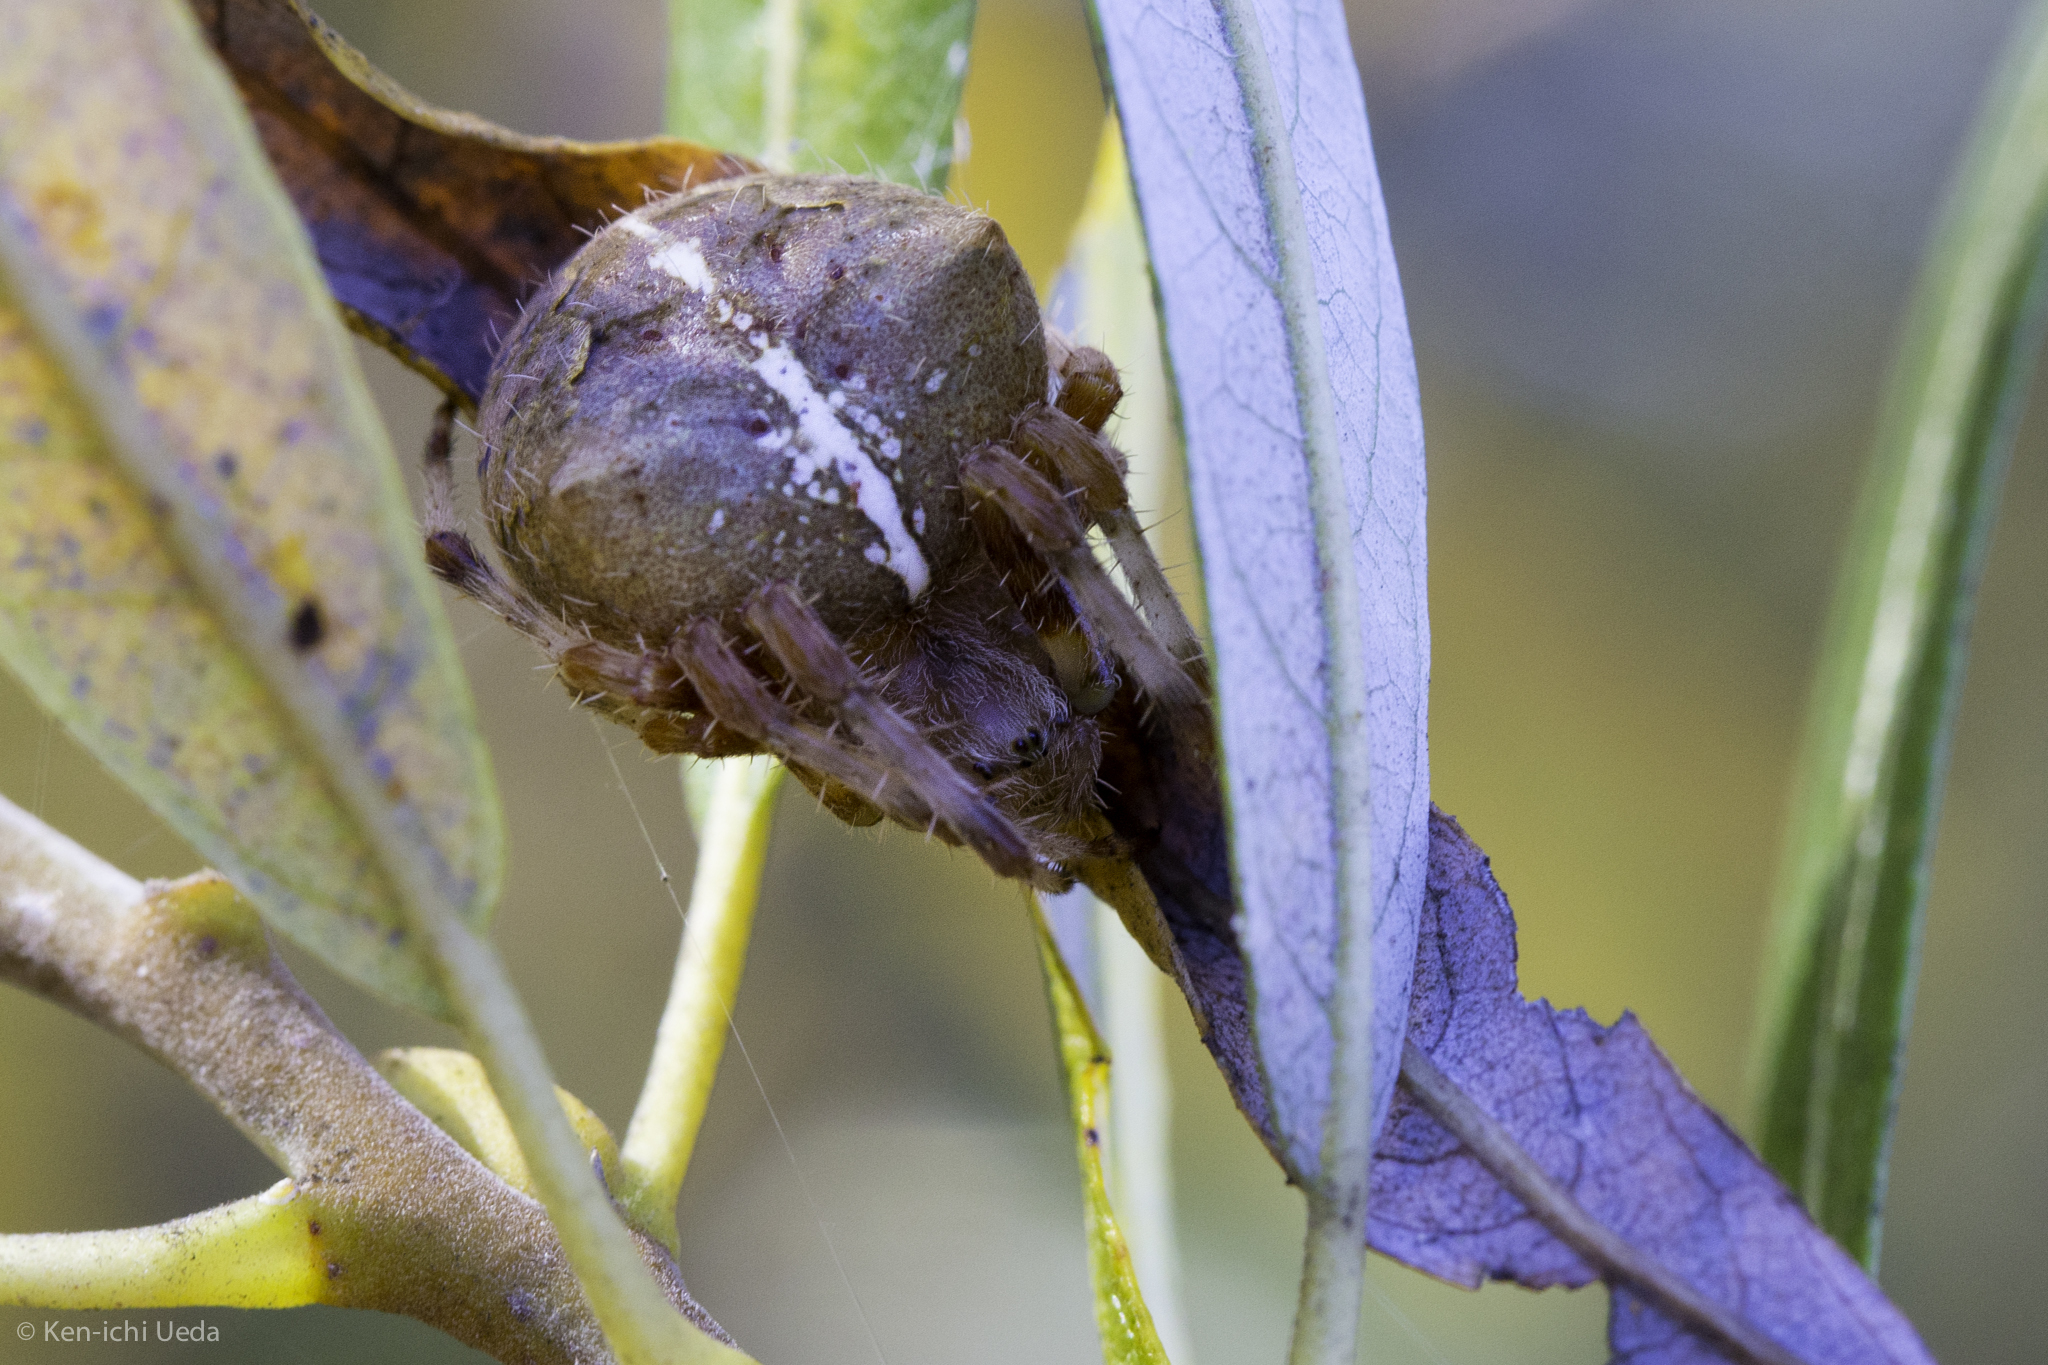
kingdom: Animalia
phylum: Arthropoda
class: Arachnida
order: Araneae
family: Araneidae
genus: Araneus
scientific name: Araneus gemma
